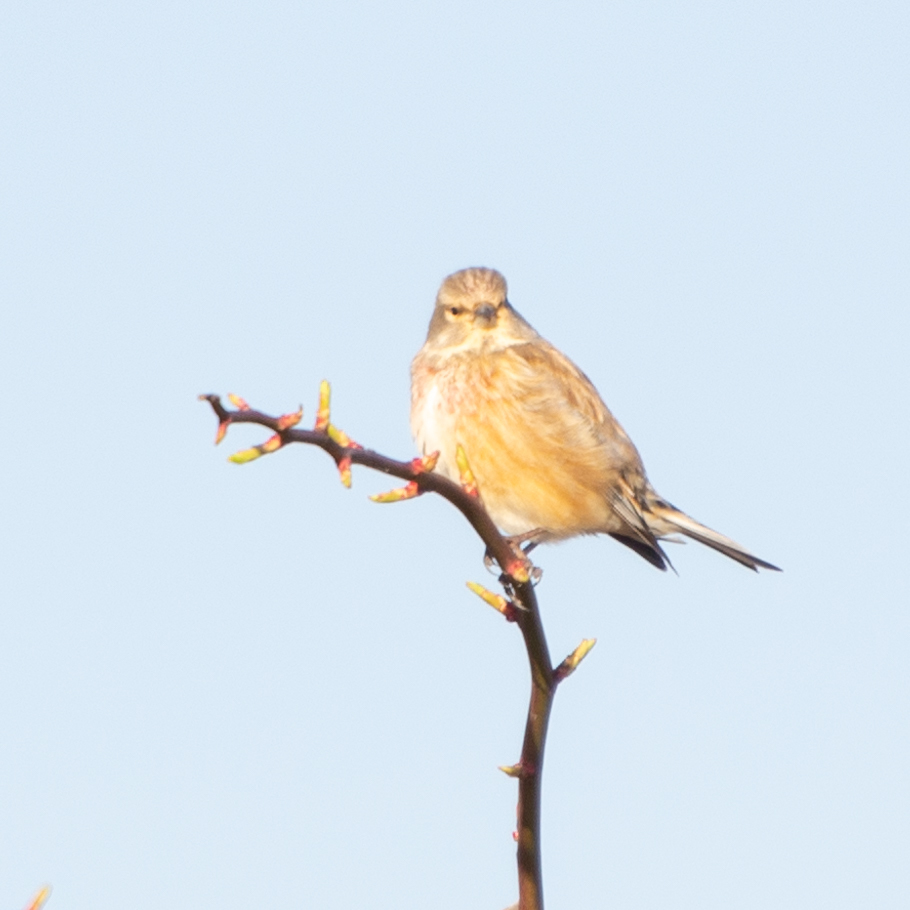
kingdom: Animalia
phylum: Chordata
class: Aves
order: Passeriformes
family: Fringillidae
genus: Linaria
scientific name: Linaria cannabina
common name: Common linnet
